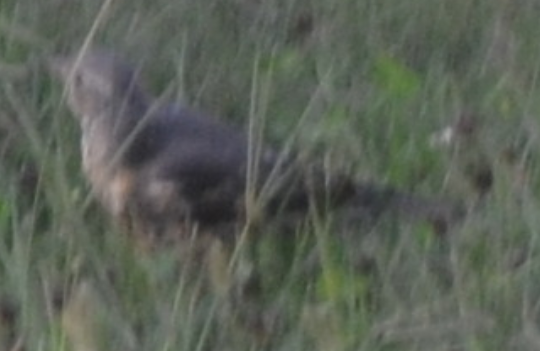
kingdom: Animalia
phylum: Chordata
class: Aves
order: Passeriformes
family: Turdidae
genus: Turdus
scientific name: Turdus viscivorus
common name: Mistle thrush
